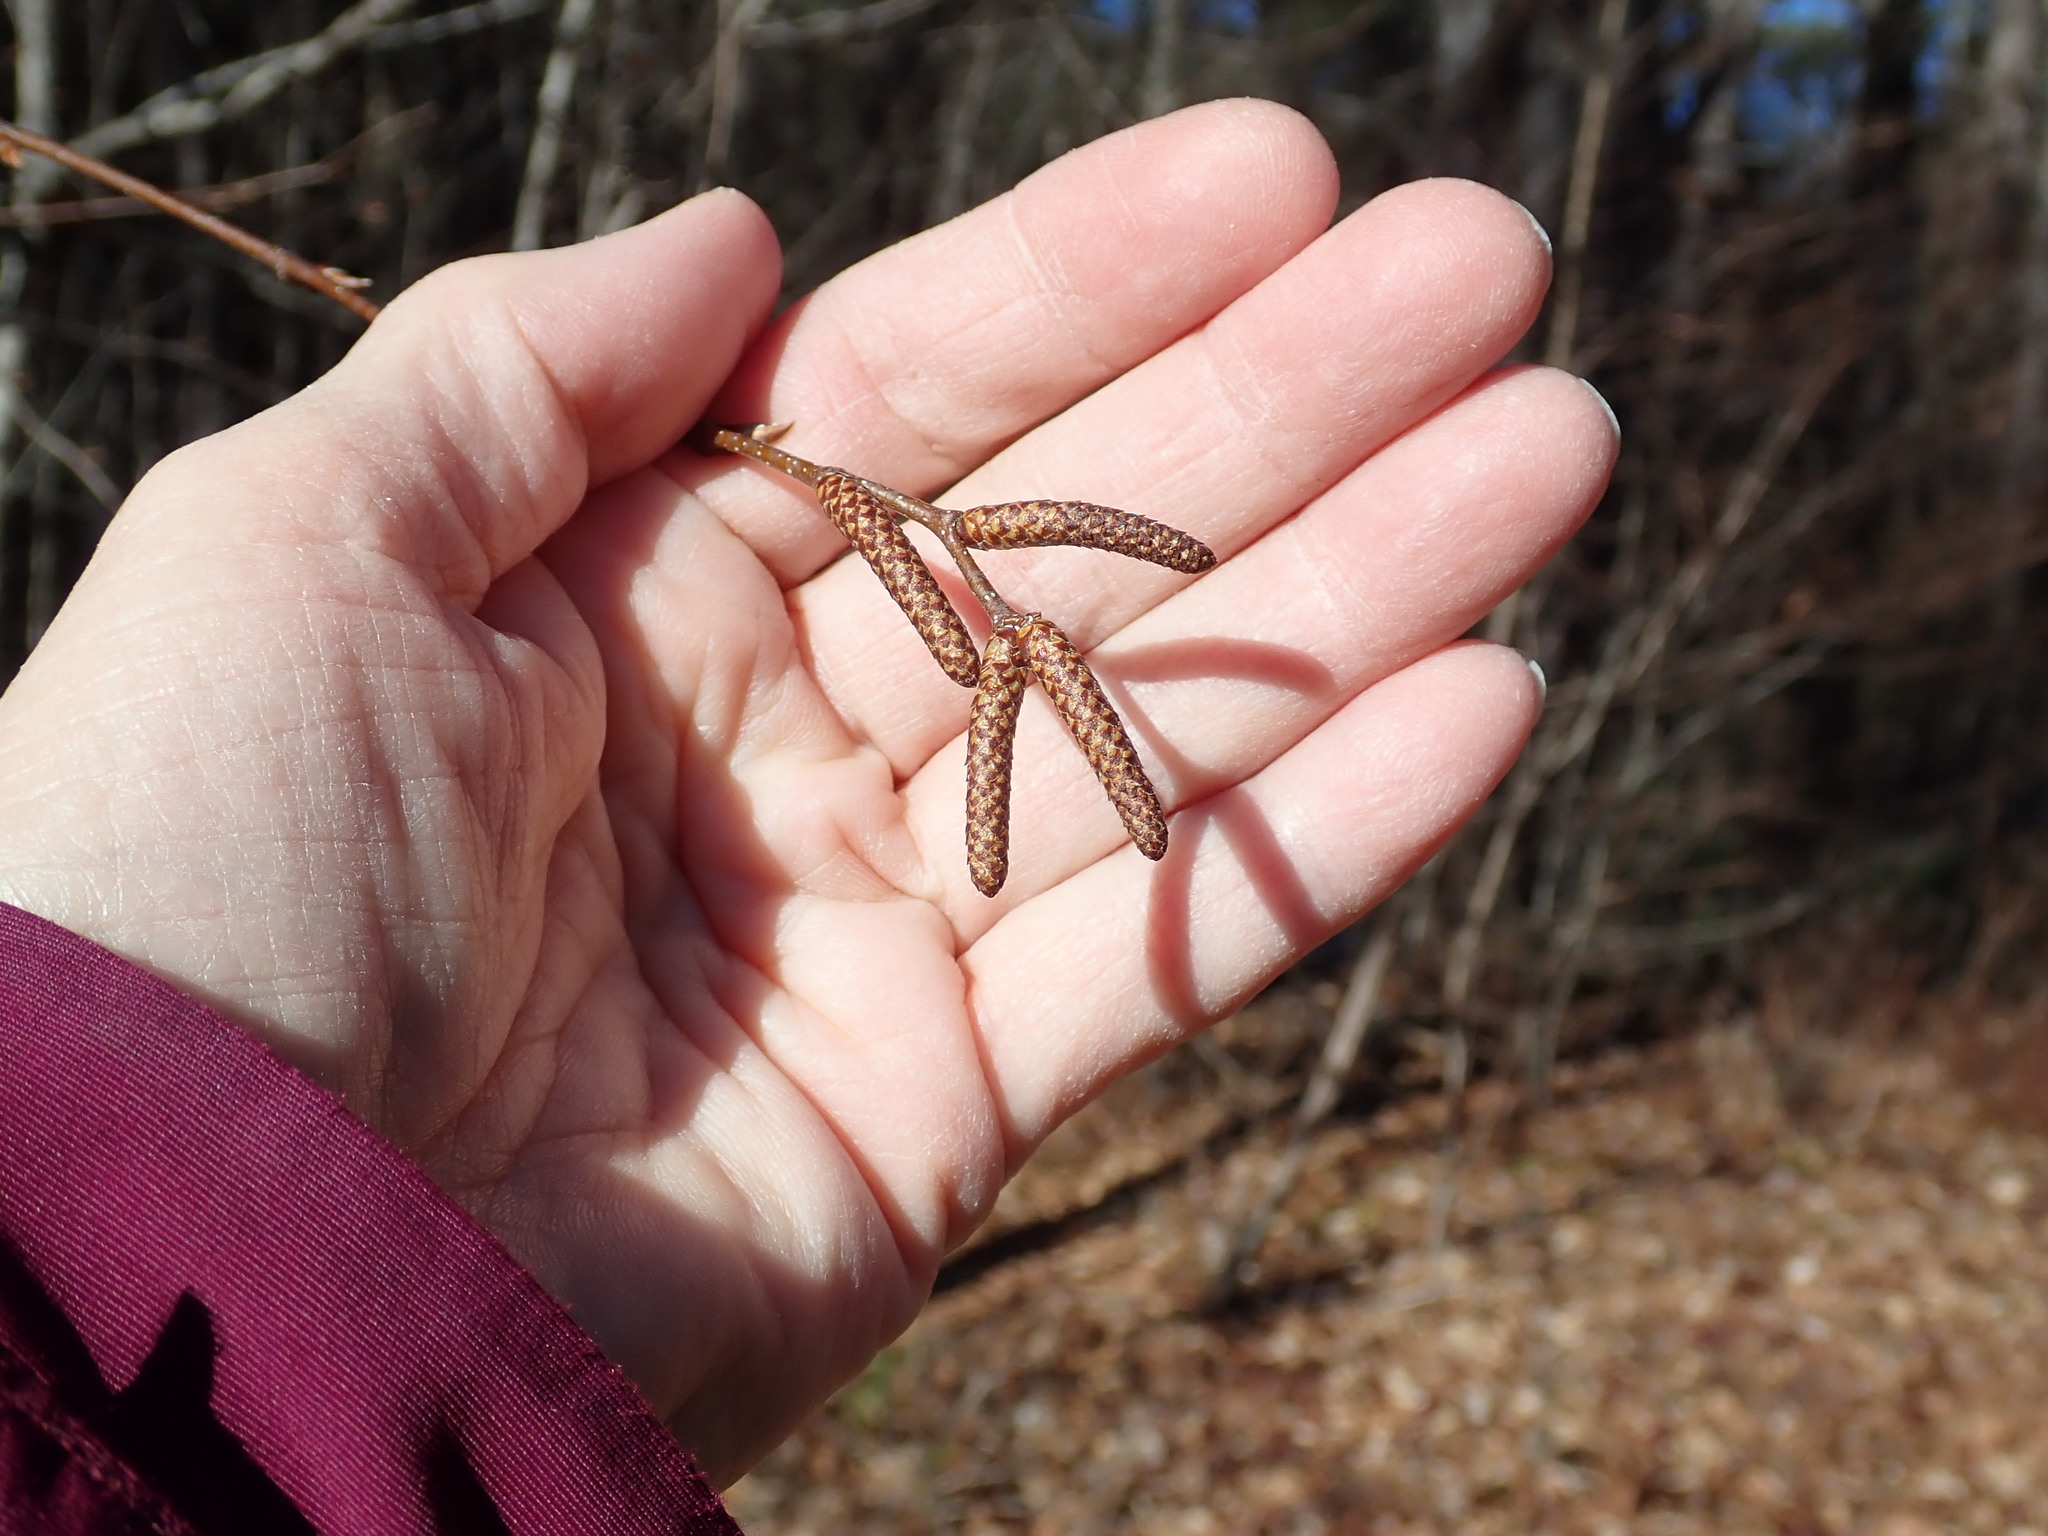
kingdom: Plantae
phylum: Tracheophyta
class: Magnoliopsida
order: Fagales
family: Betulaceae
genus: Betula
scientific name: Betula lenta
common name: Black birch
